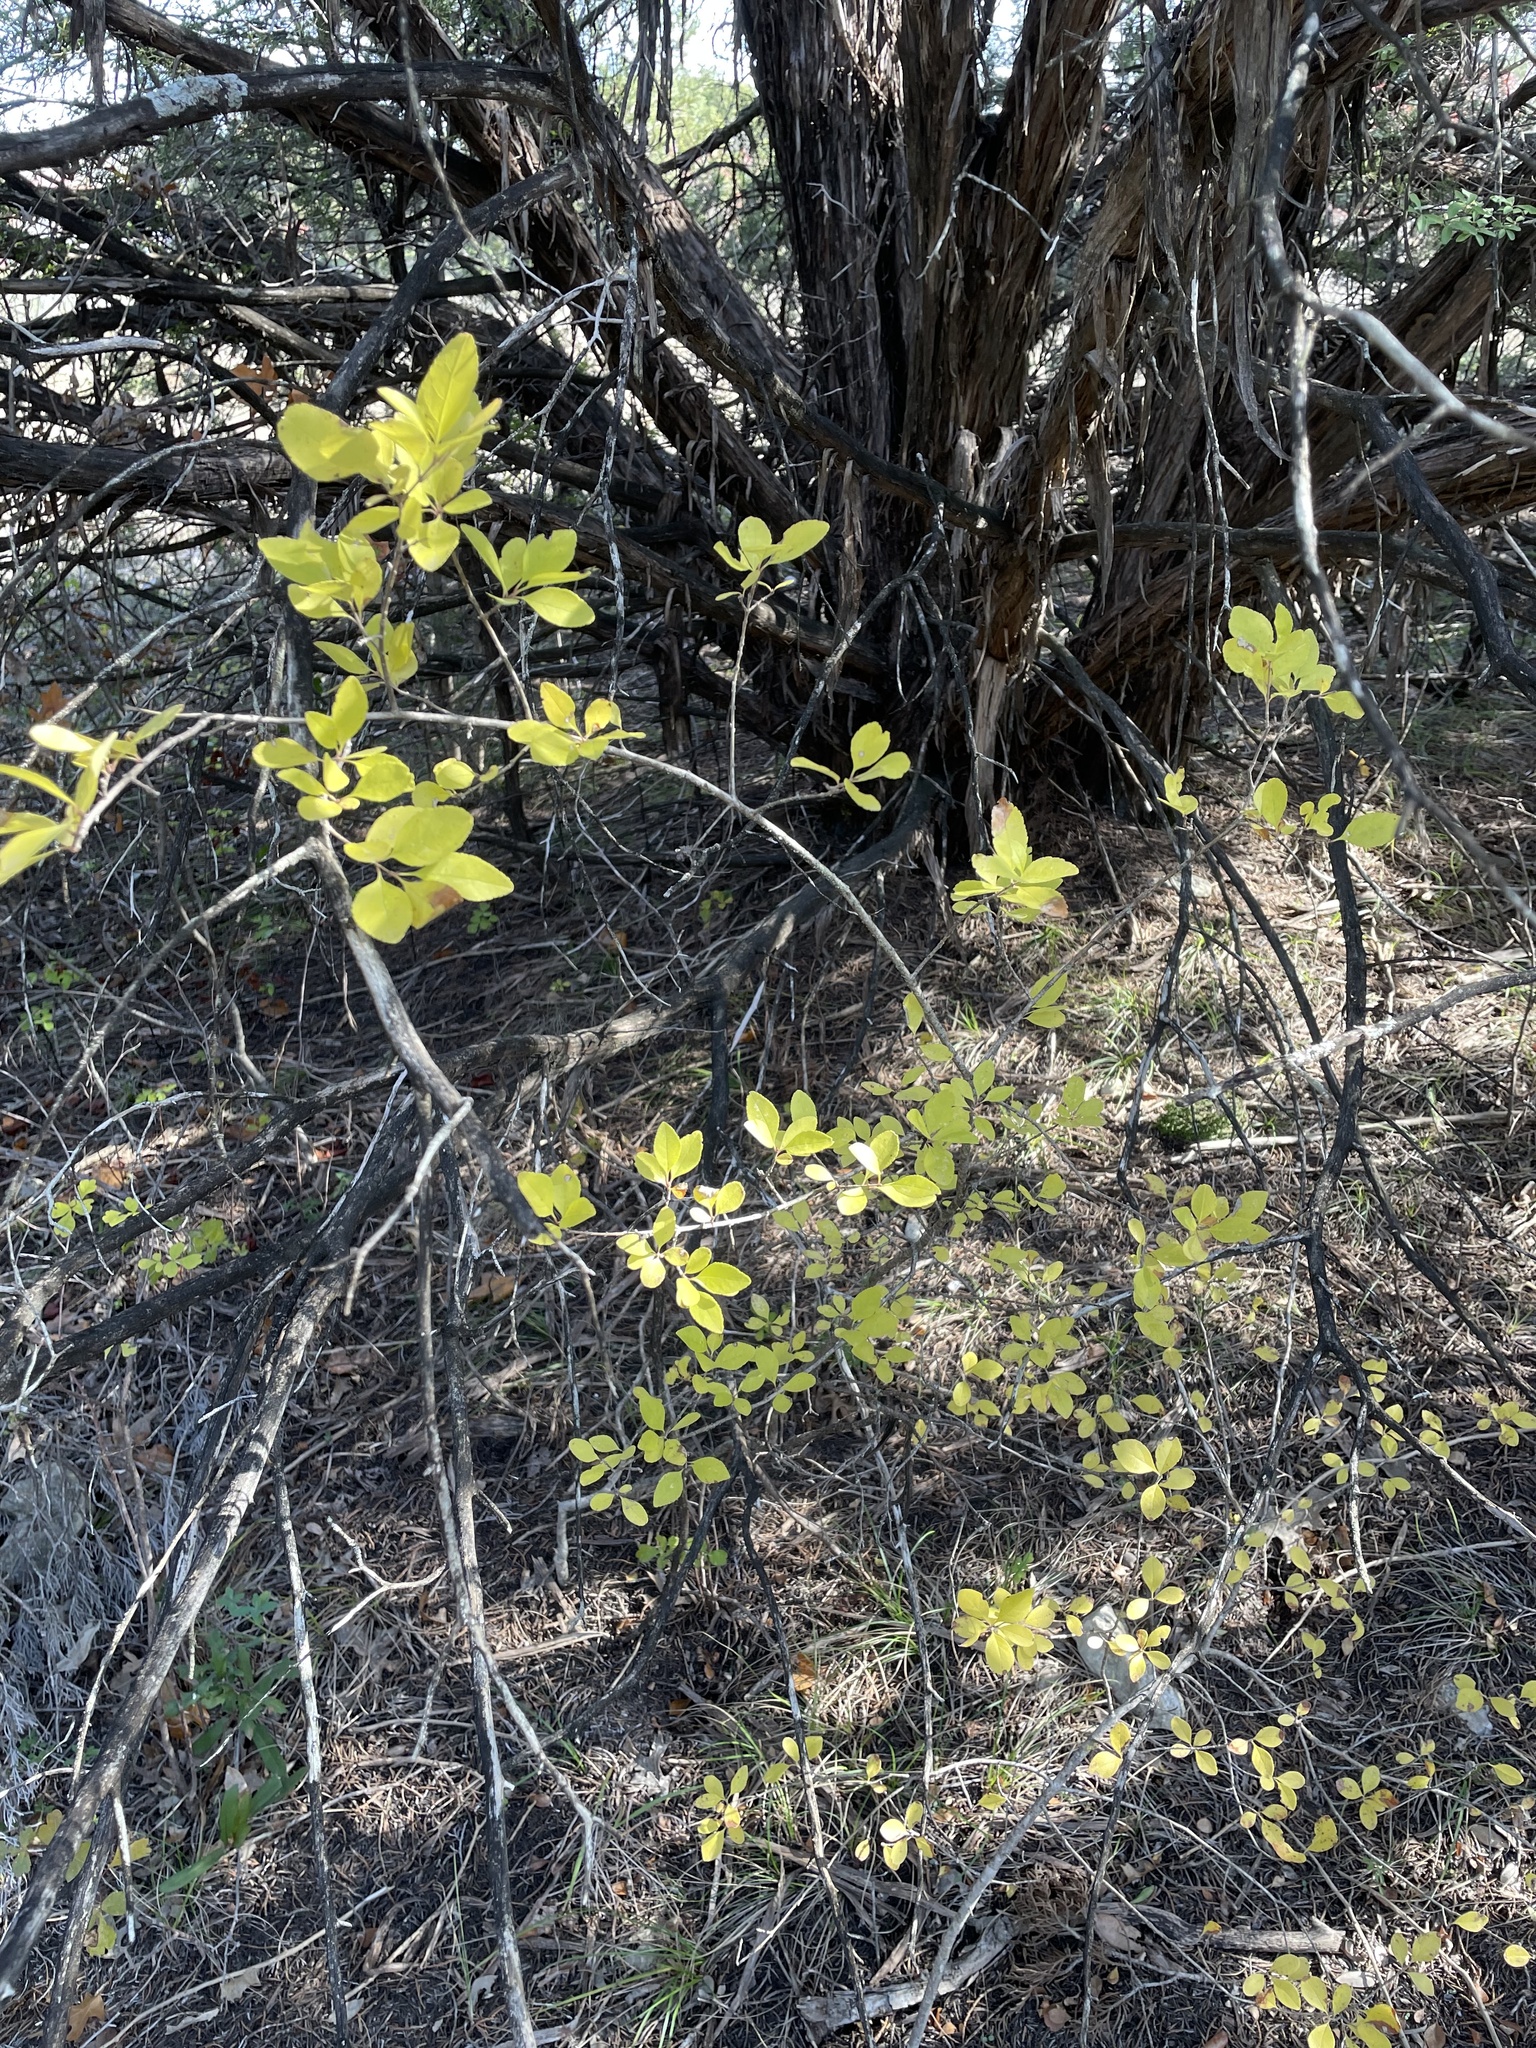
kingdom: Plantae
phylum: Tracheophyta
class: Magnoliopsida
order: Lamiales
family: Oleaceae
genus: Forestiera
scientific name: Forestiera pubescens
